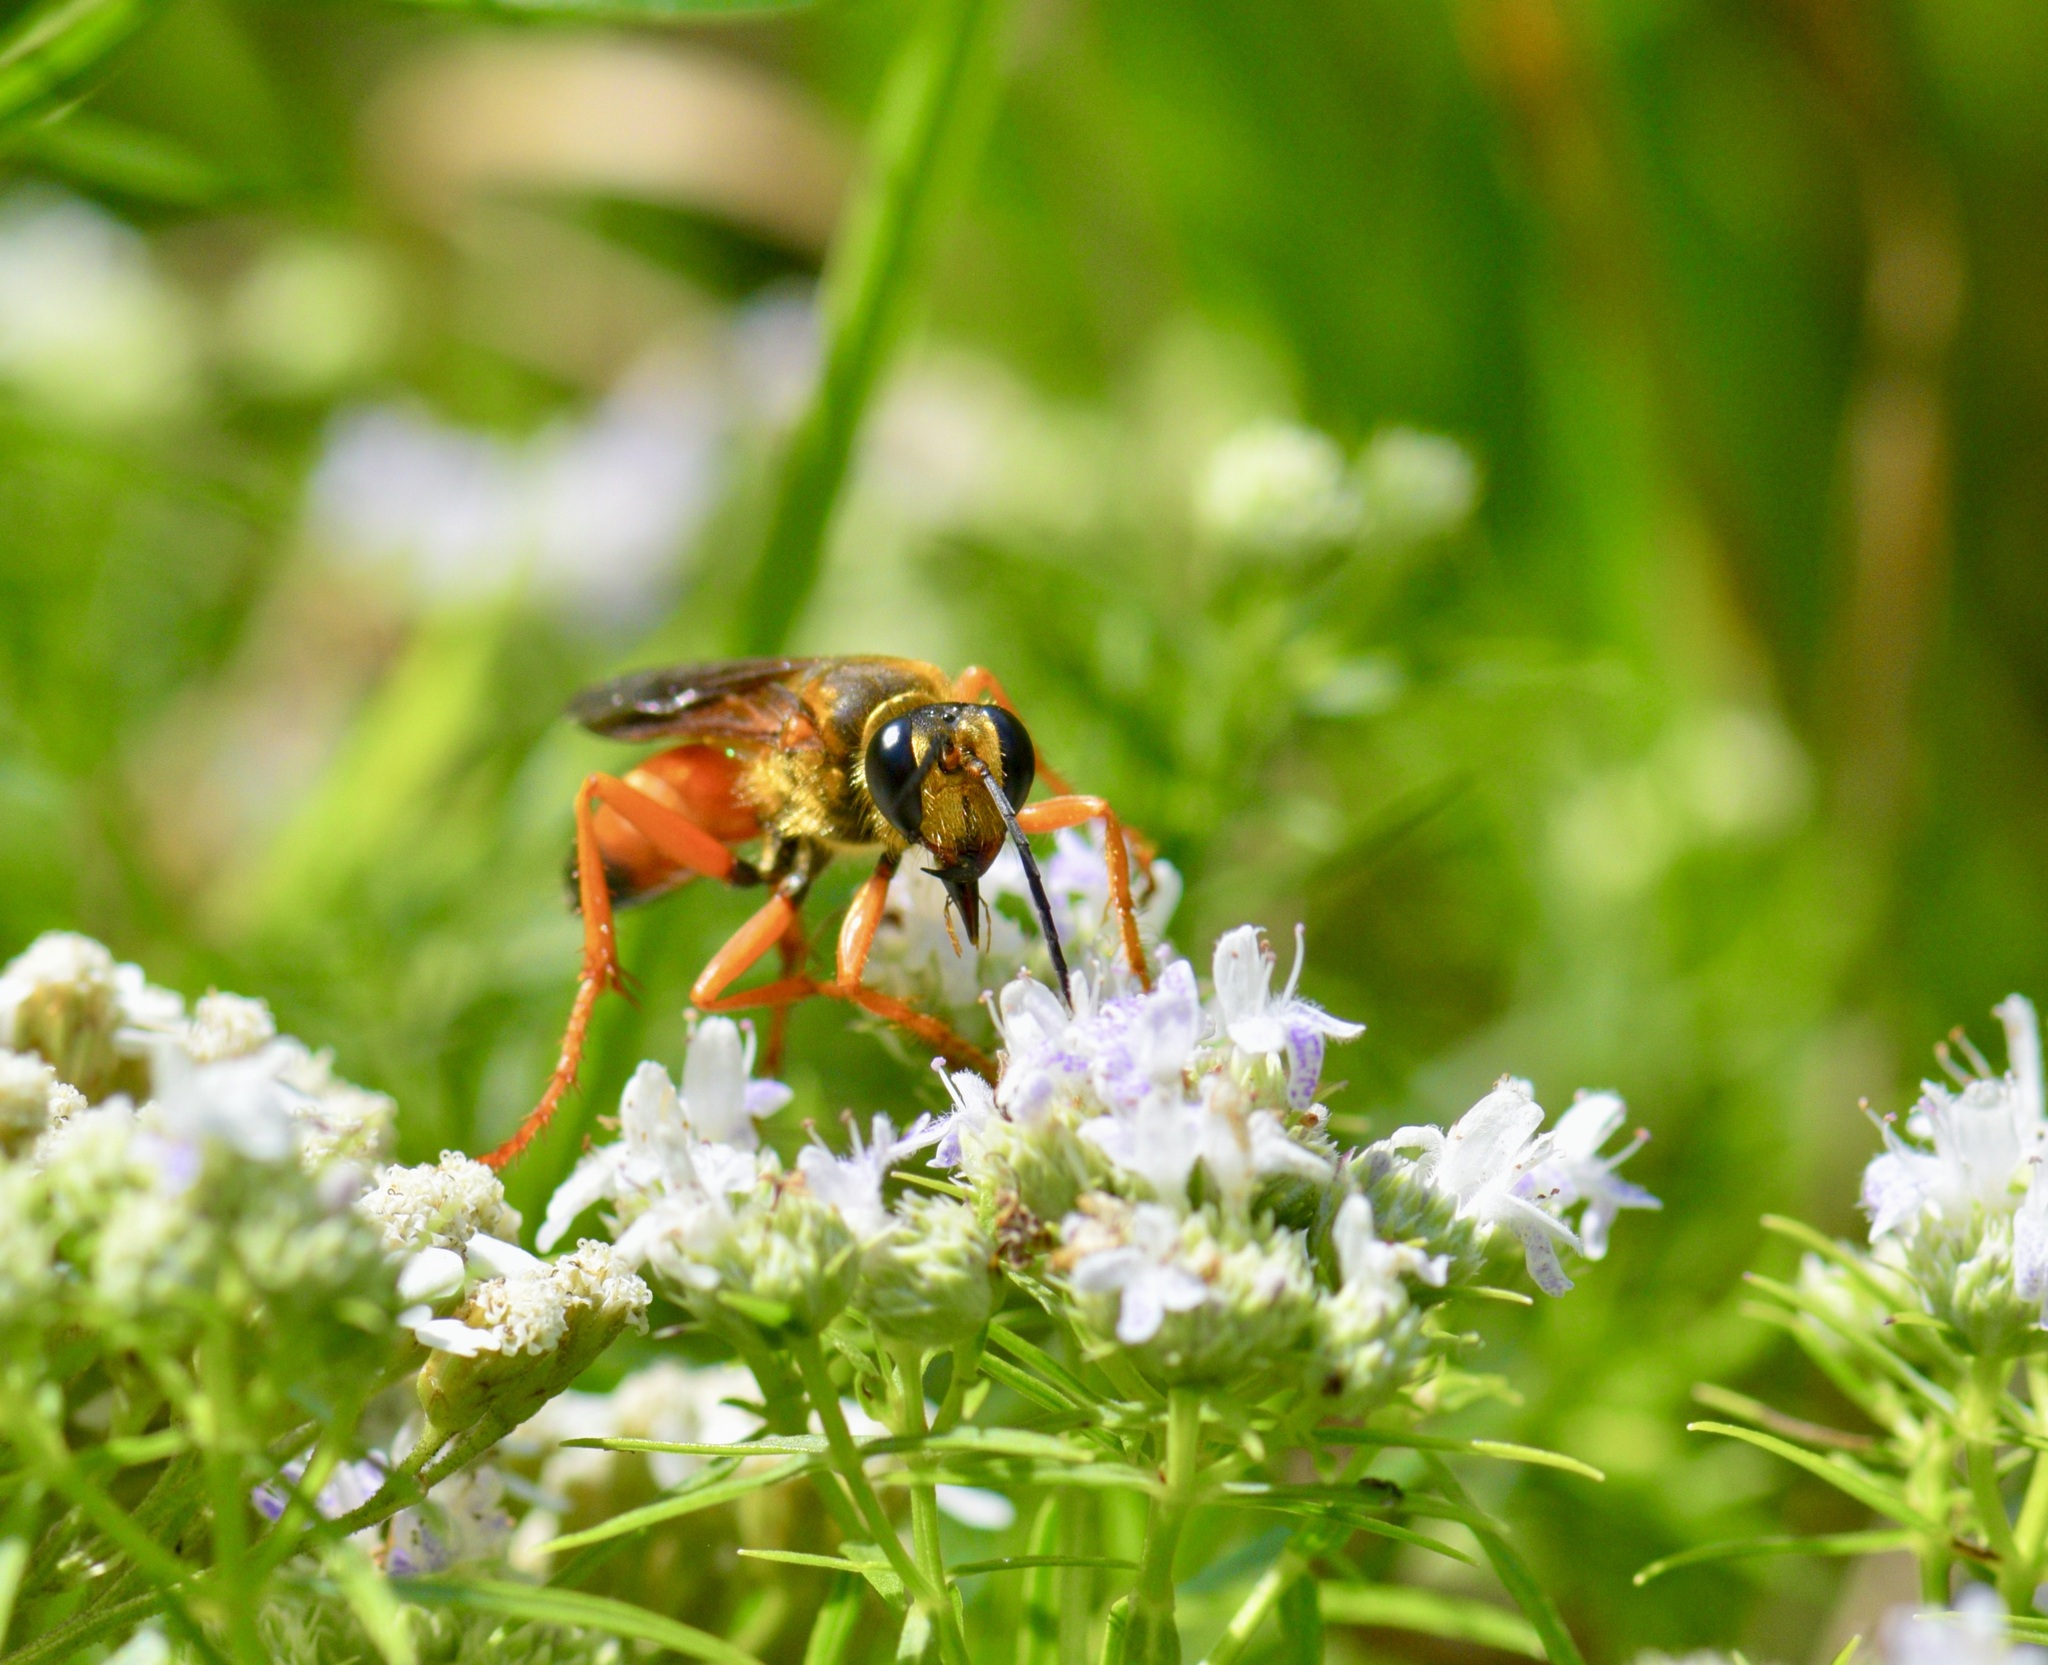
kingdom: Animalia
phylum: Arthropoda
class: Insecta
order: Hymenoptera
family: Sphecidae
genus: Sphex
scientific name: Sphex ichneumoneus
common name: Great golden digger wasp
